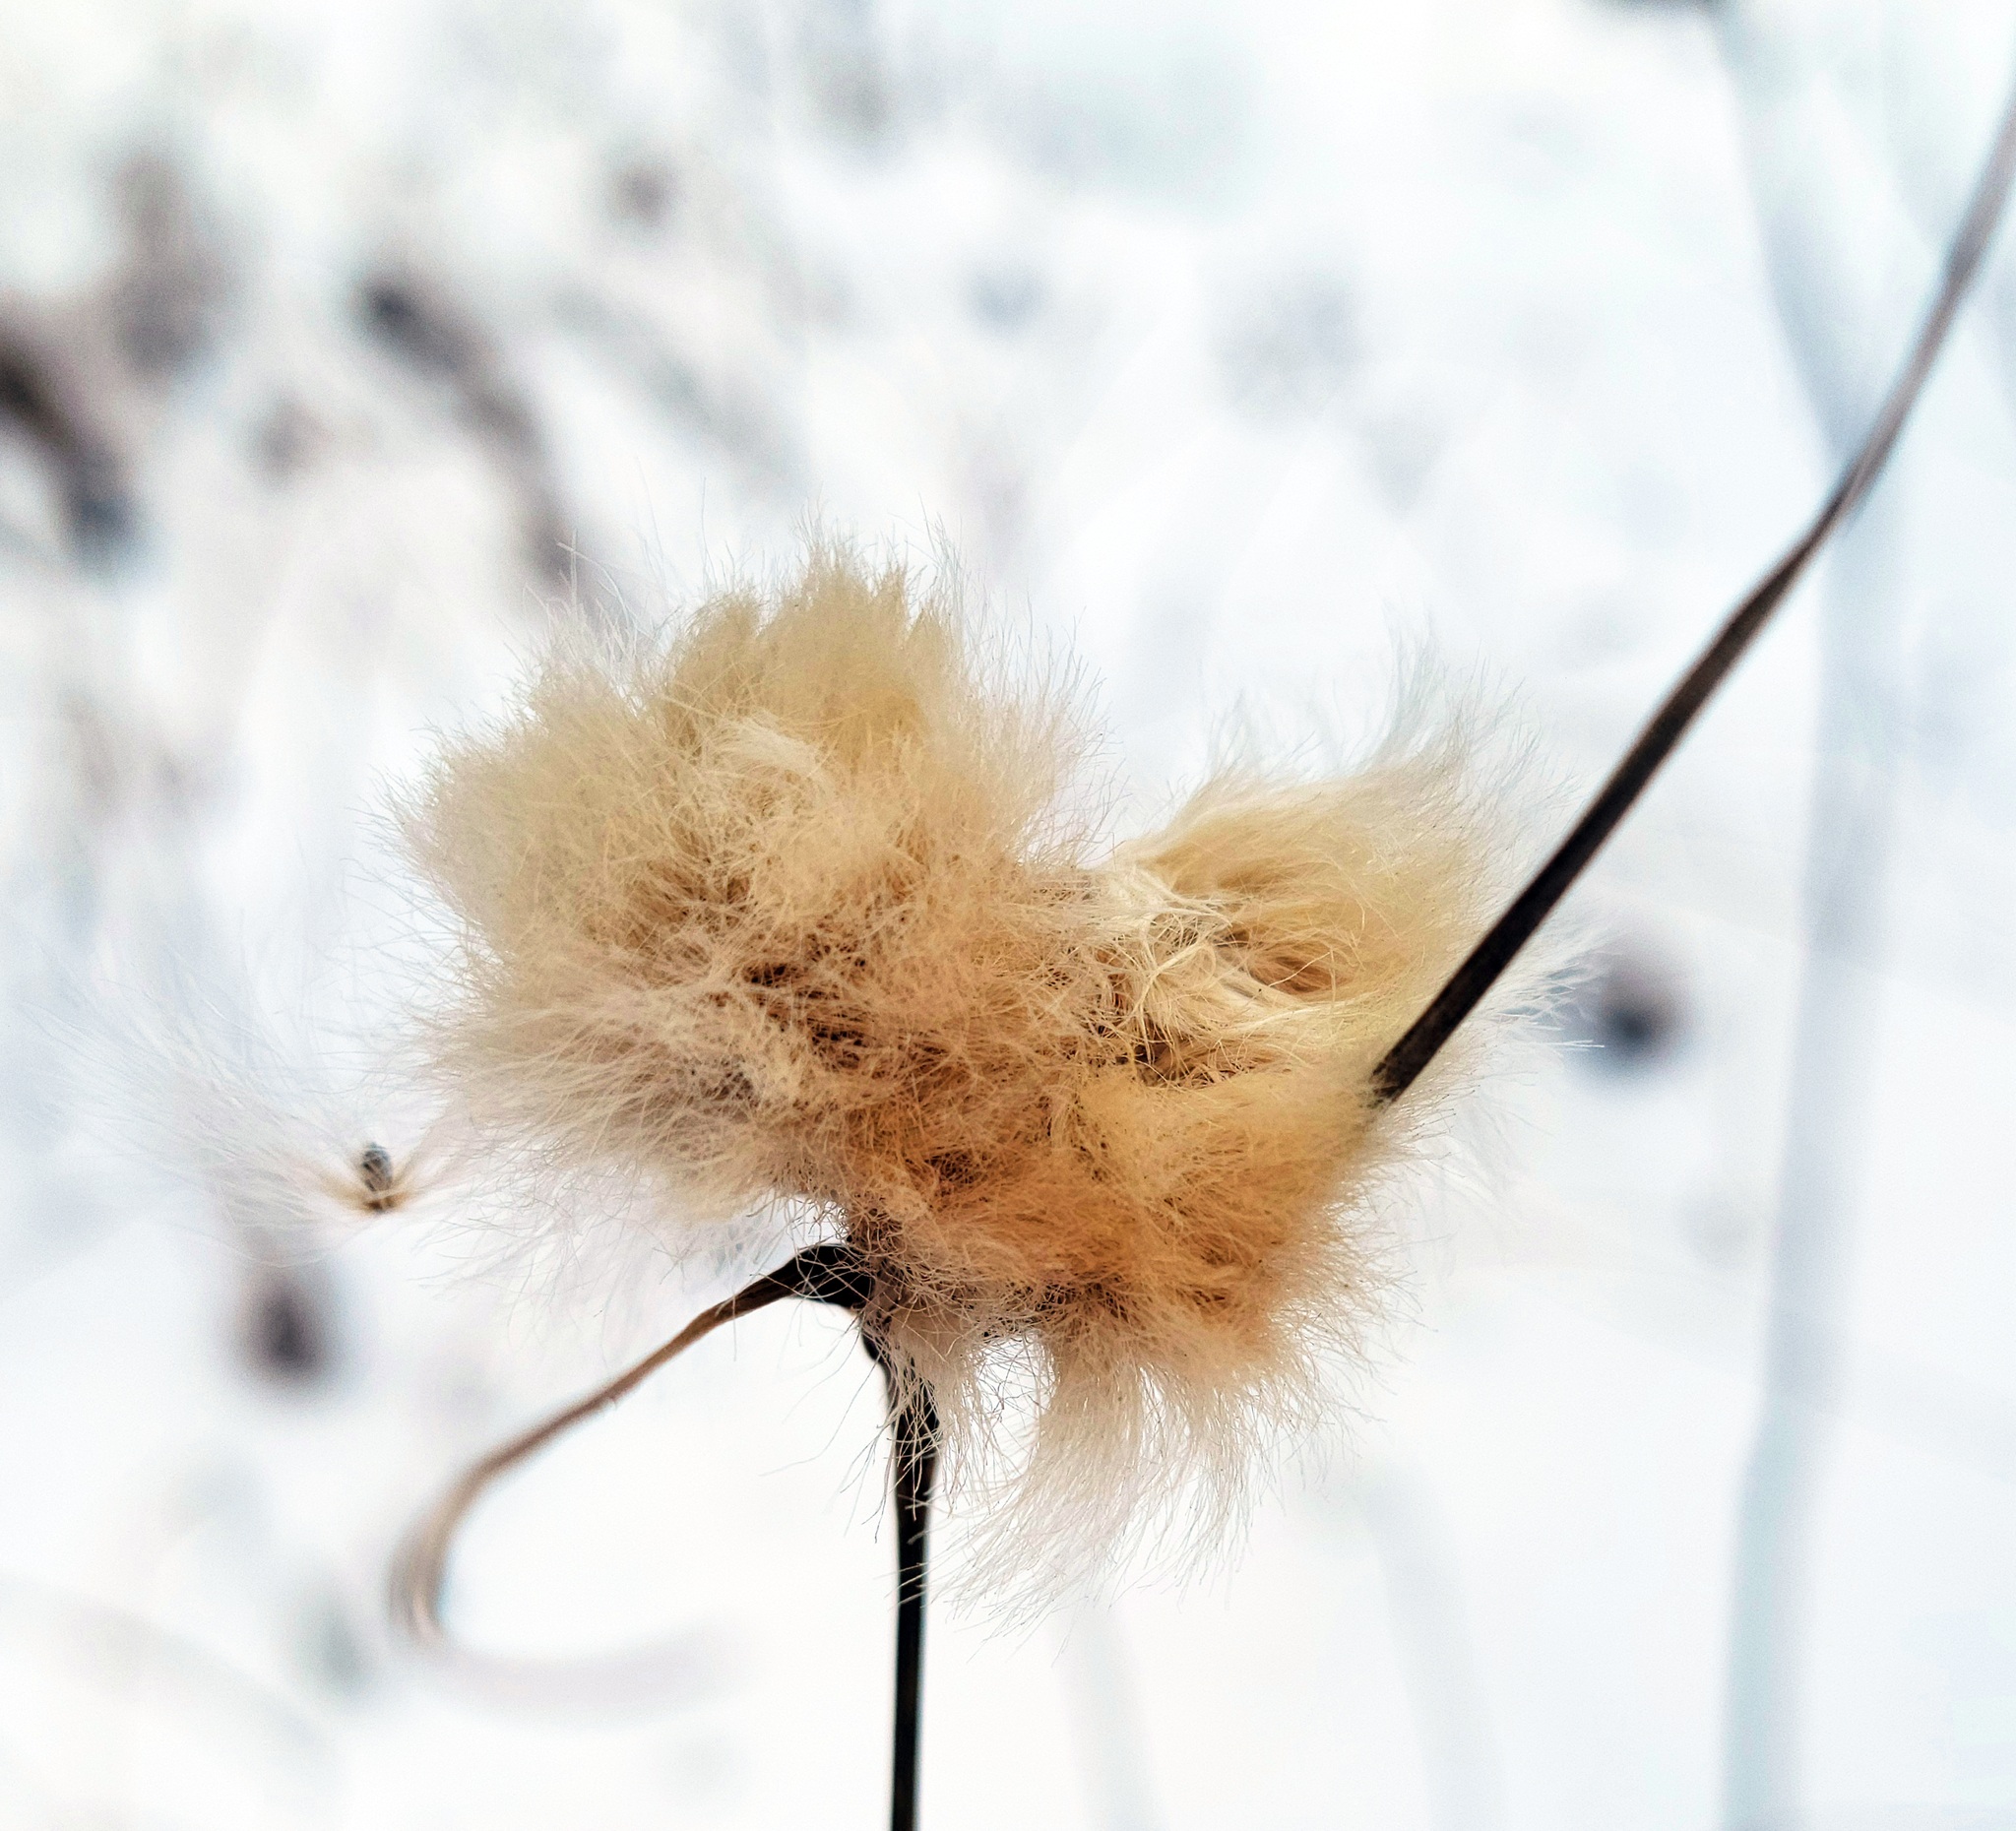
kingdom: Plantae
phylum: Tracheophyta
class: Liliopsida
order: Poales
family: Cyperaceae
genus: Eriophorum
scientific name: Eriophorum virginicum
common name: Tawny cottongrass
